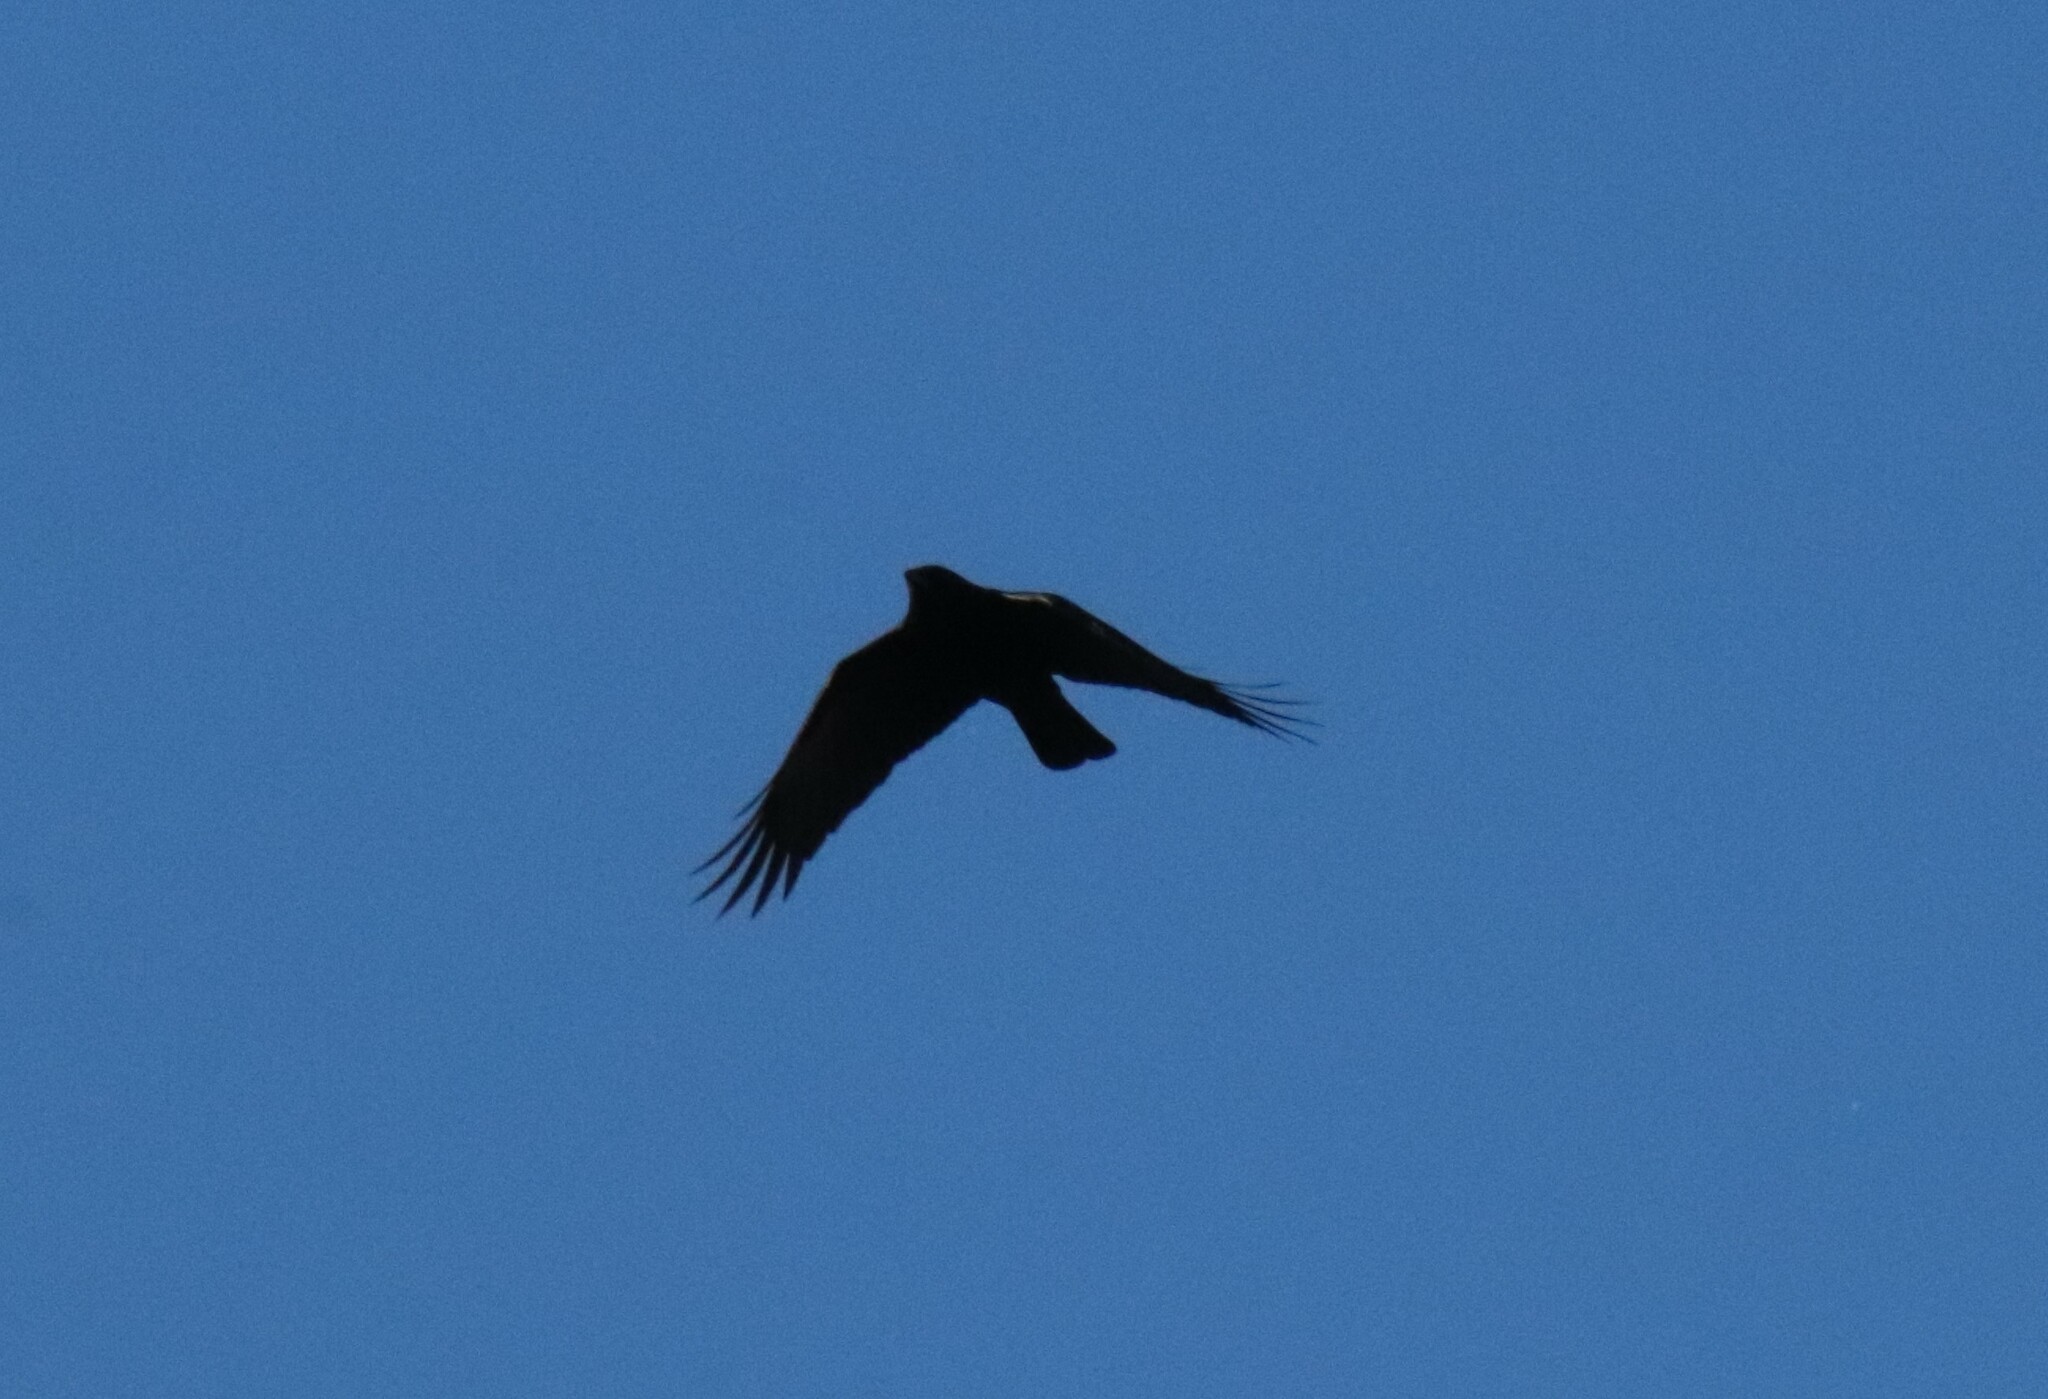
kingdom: Animalia
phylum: Chordata
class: Aves
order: Passeriformes
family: Corvidae
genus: Corvus
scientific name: Corvus brachyrhynchos
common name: American crow
